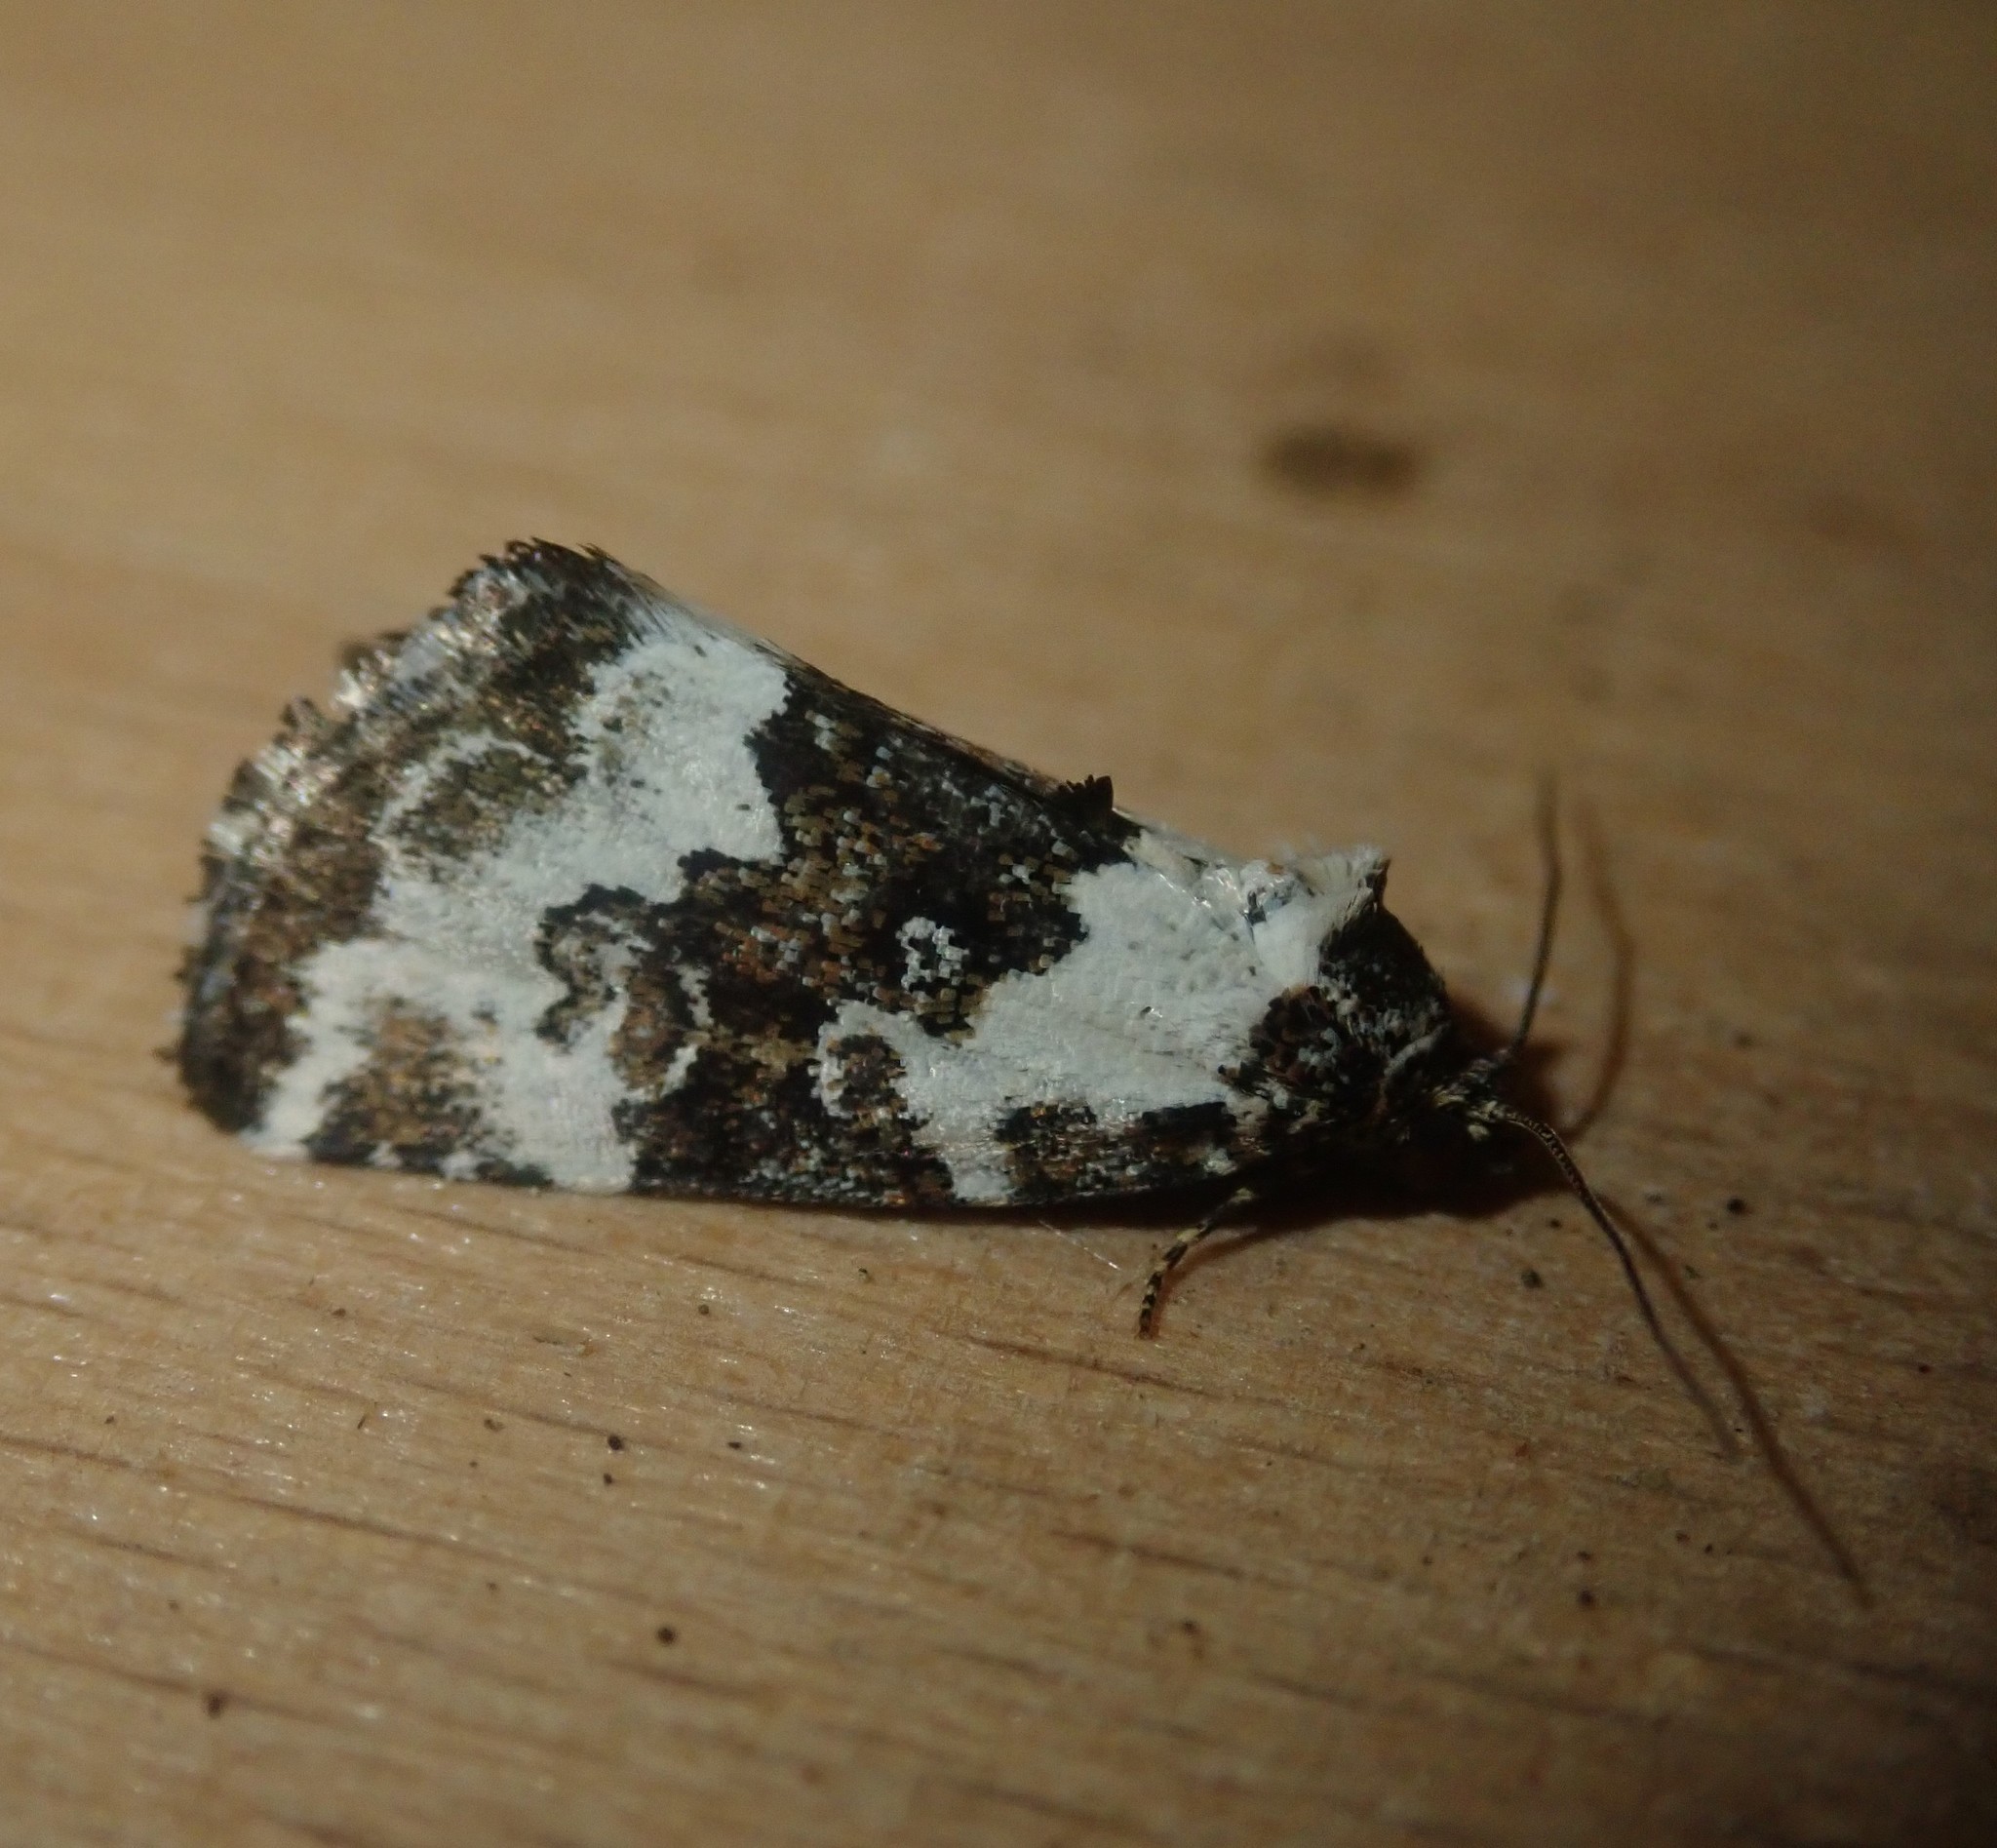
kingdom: Animalia
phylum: Arthropoda
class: Insecta
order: Lepidoptera
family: Noctuidae
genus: Deltote
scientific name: Deltote deceptoria
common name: Pretty marbled
